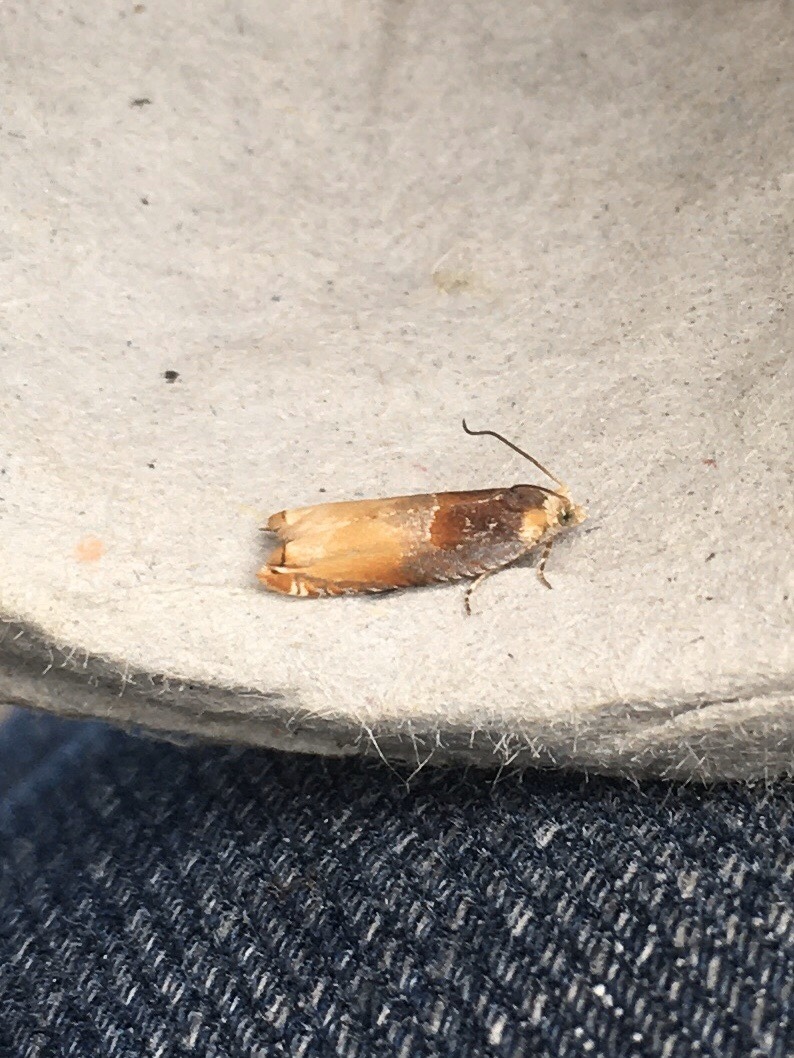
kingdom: Animalia
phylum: Arthropoda
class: Insecta
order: Lepidoptera
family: Tortricidae
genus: Ancylis
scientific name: Ancylis divisana
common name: Two-toned ancylis moth
